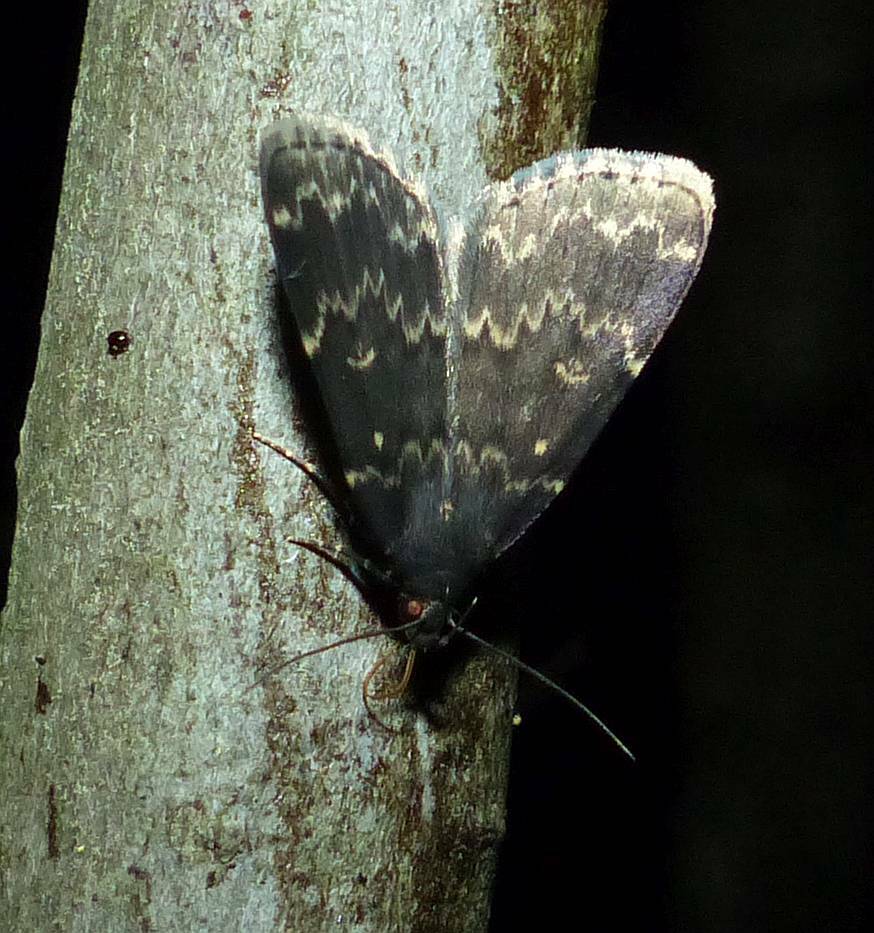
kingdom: Animalia
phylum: Arthropoda
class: Insecta
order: Lepidoptera
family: Erebidae
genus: Idia
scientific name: Idia lubricalis
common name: Twin-striped tabby
